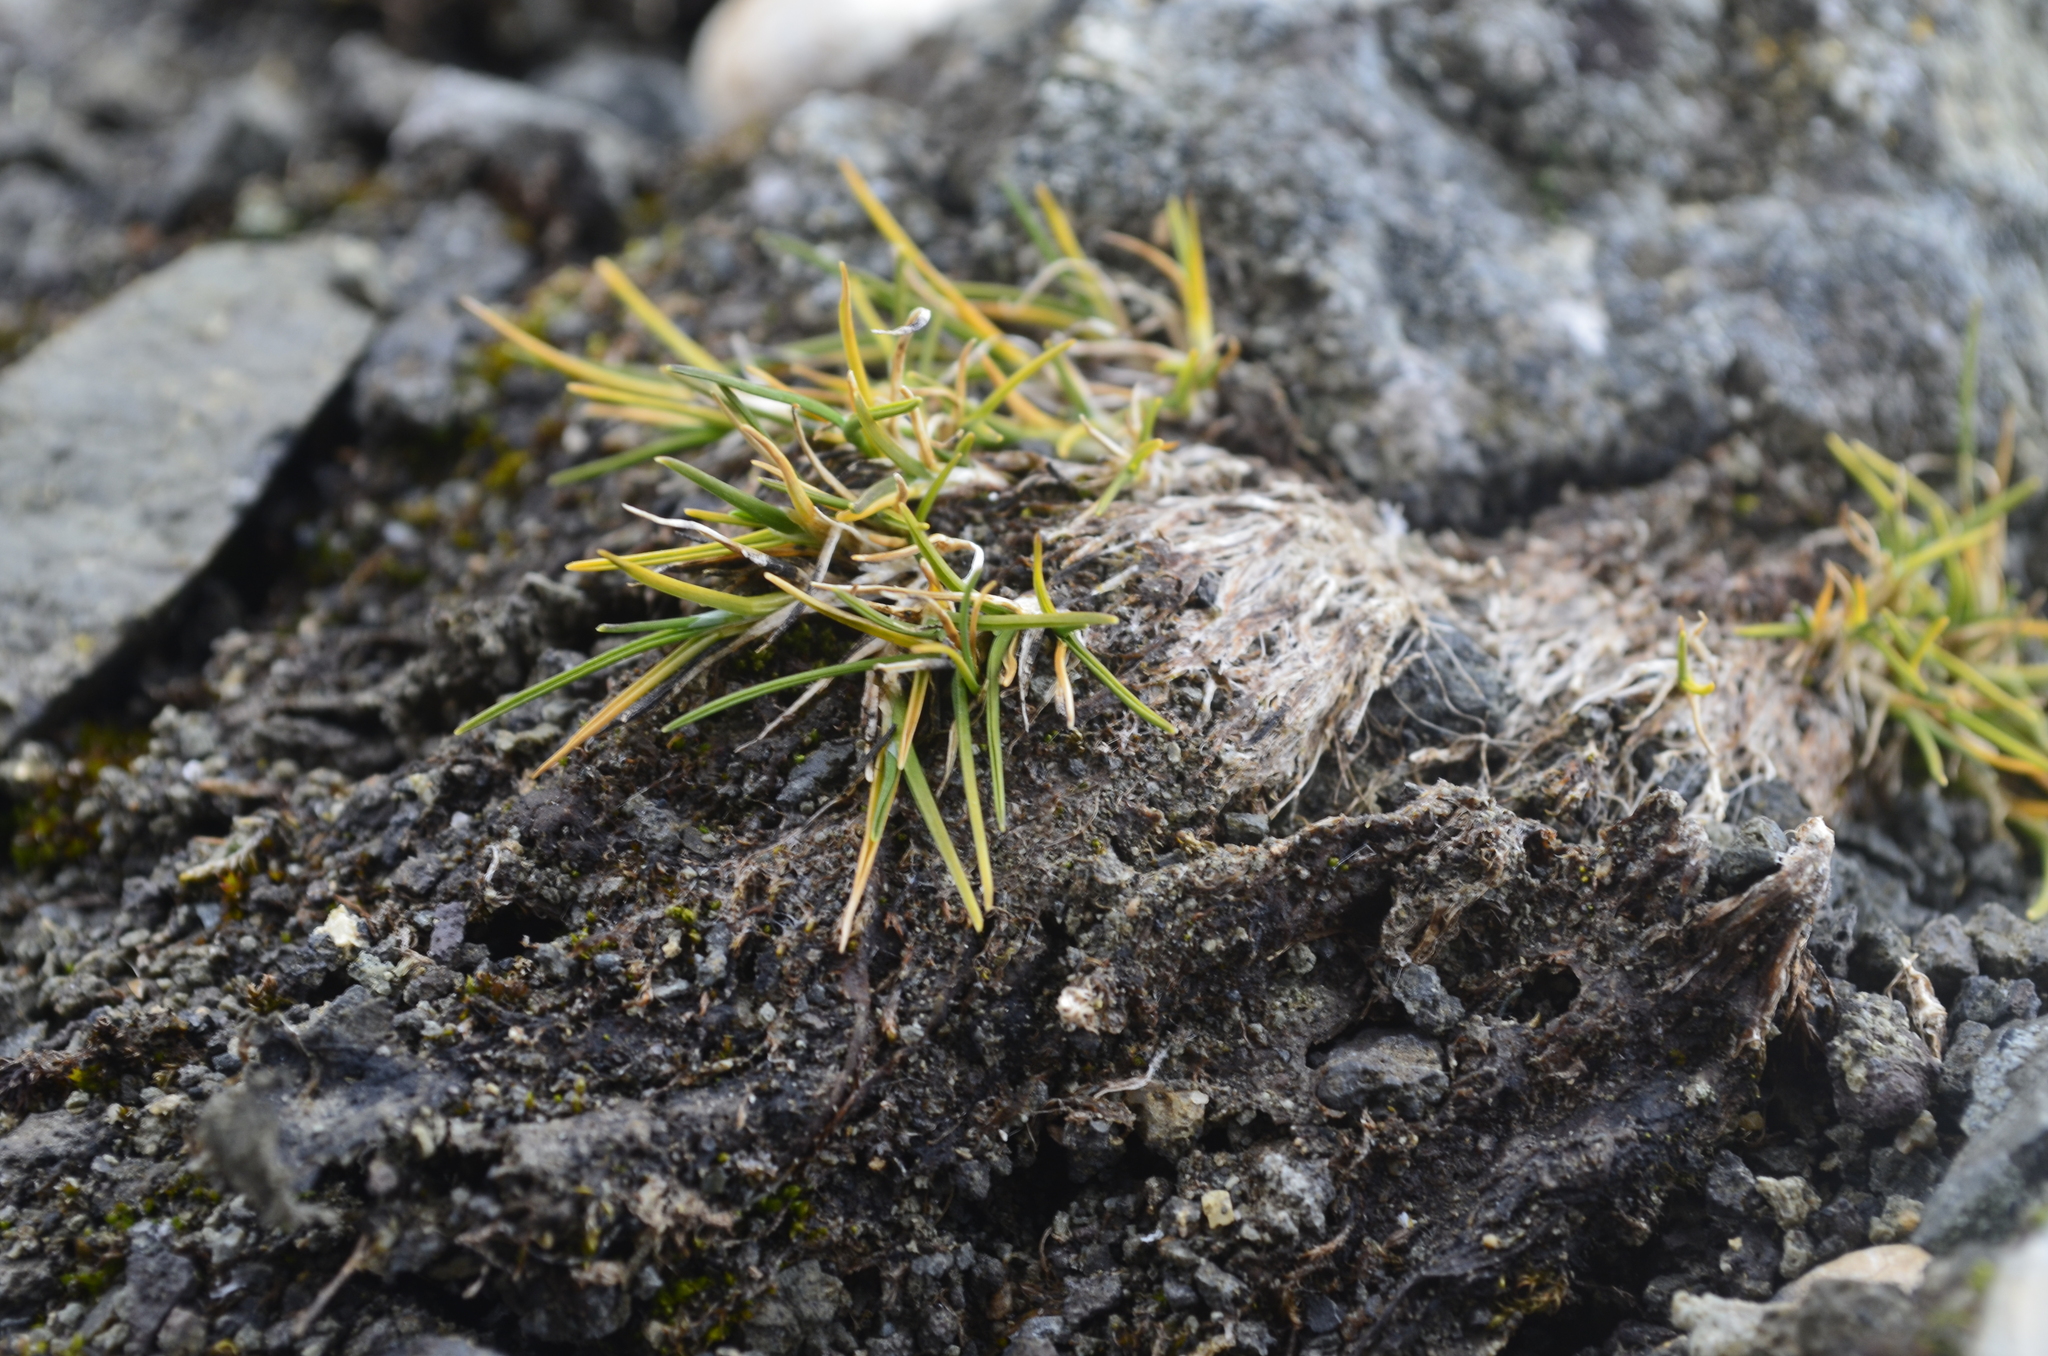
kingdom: Plantae
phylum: Tracheophyta
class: Liliopsida
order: Poales
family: Poaceae
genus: Deschampsia
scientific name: Deschampsia antarctica
